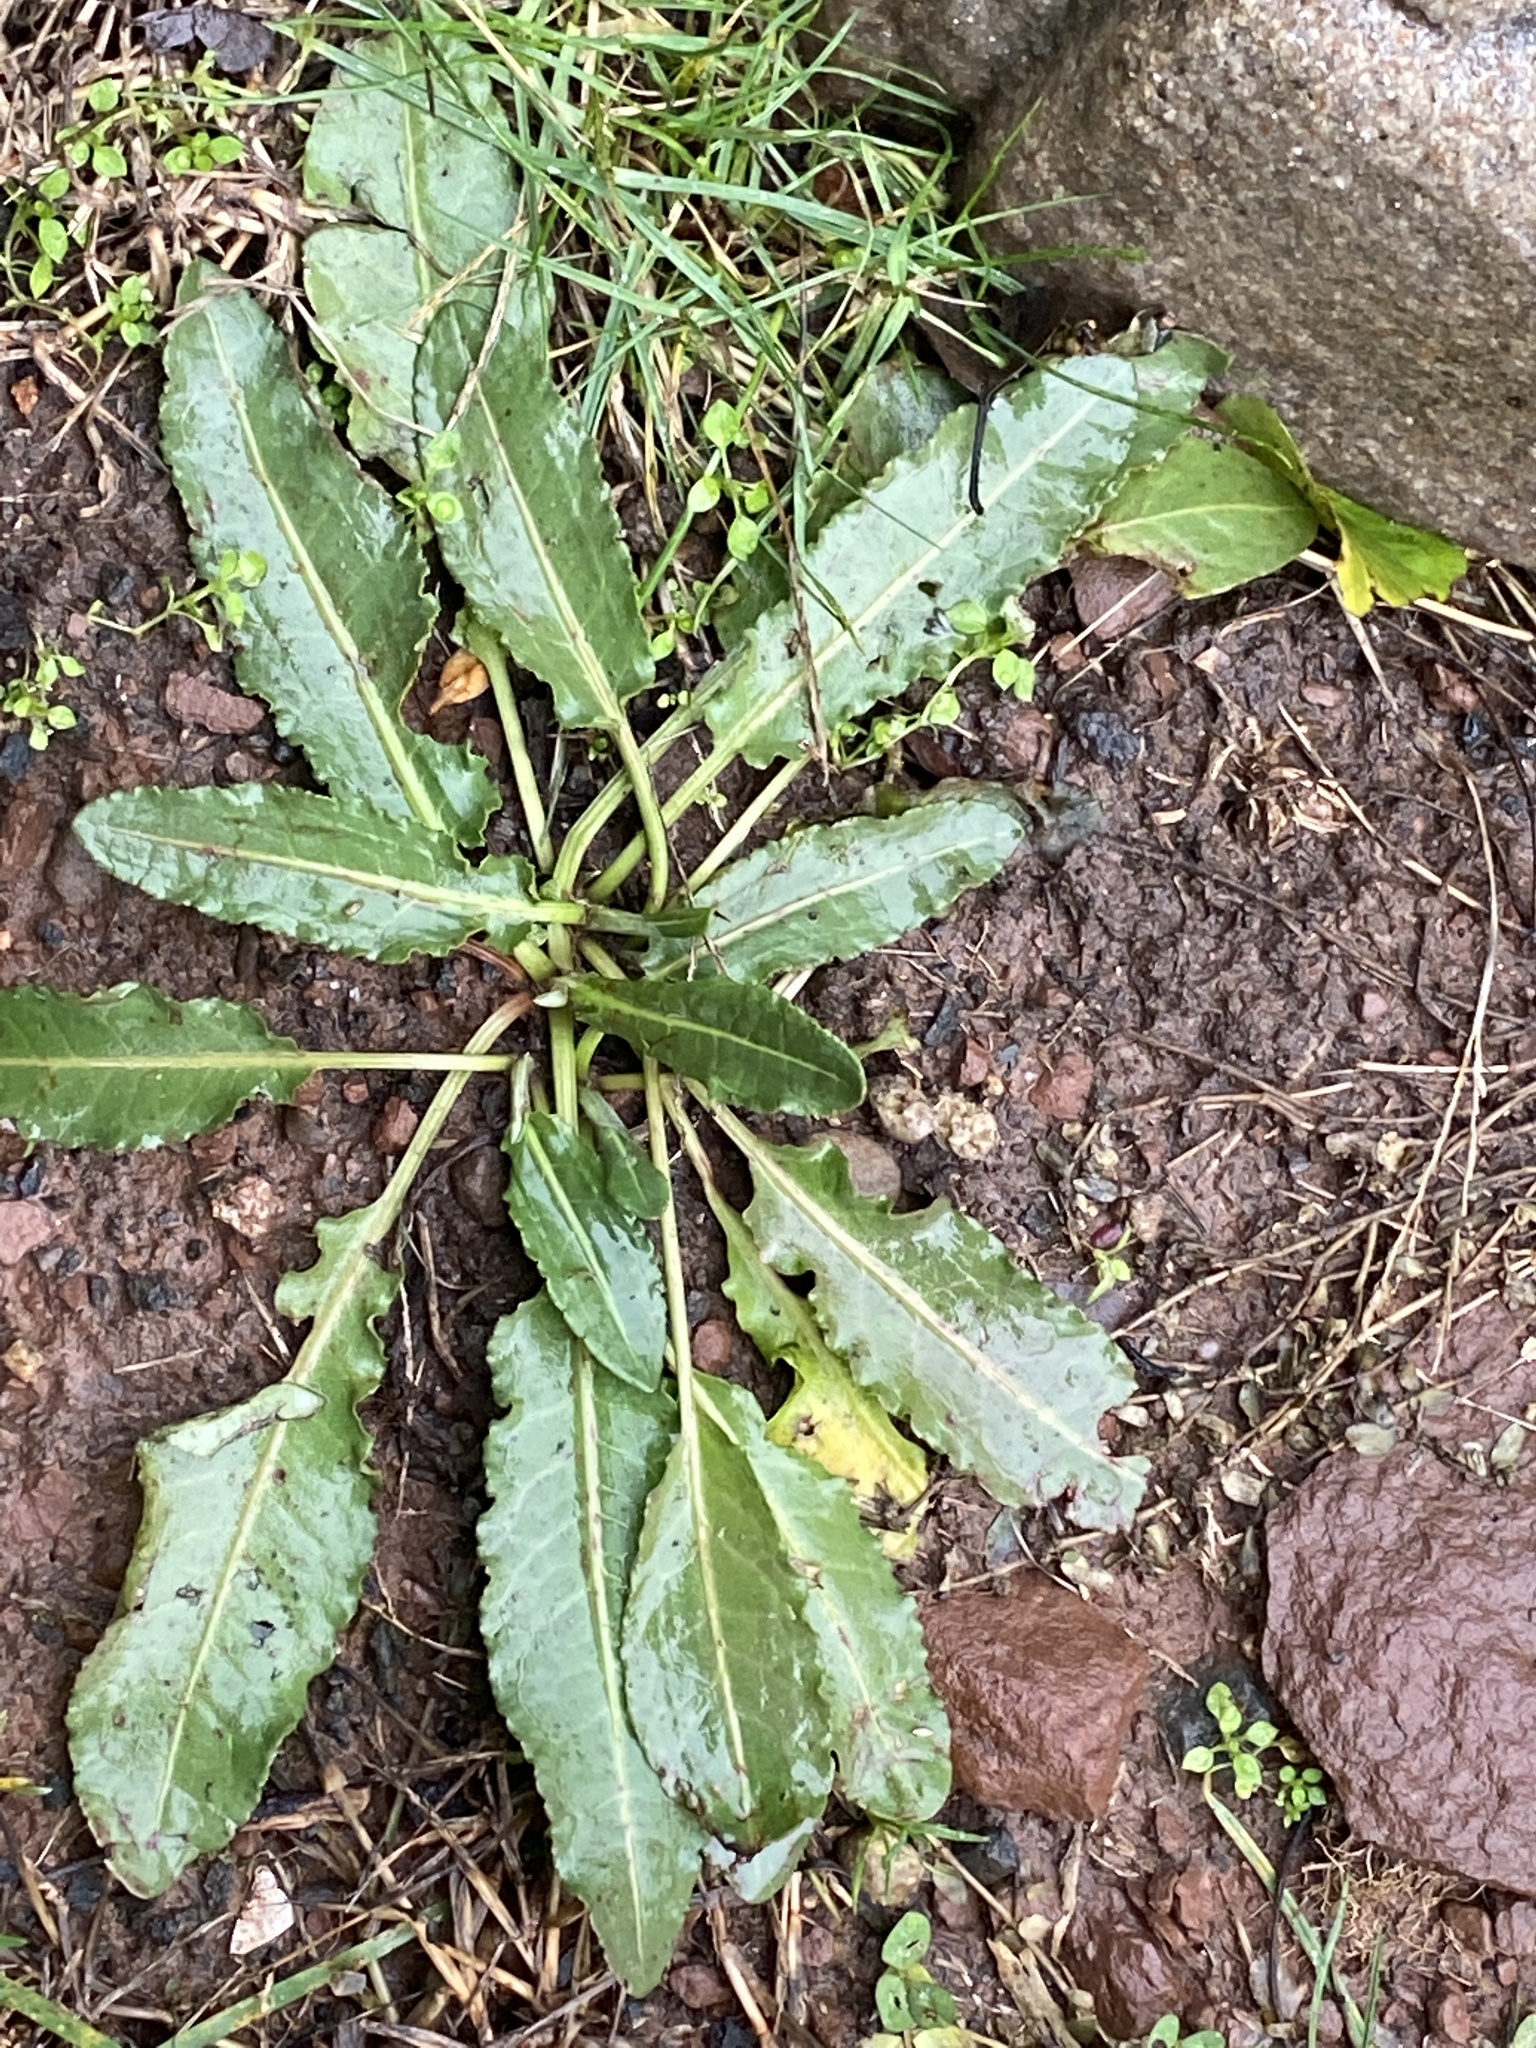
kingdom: Plantae
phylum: Tracheophyta
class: Magnoliopsida
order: Caryophyllales
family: Polygonaceae
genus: Rumex
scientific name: Rumex crispus
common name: Curled dock
